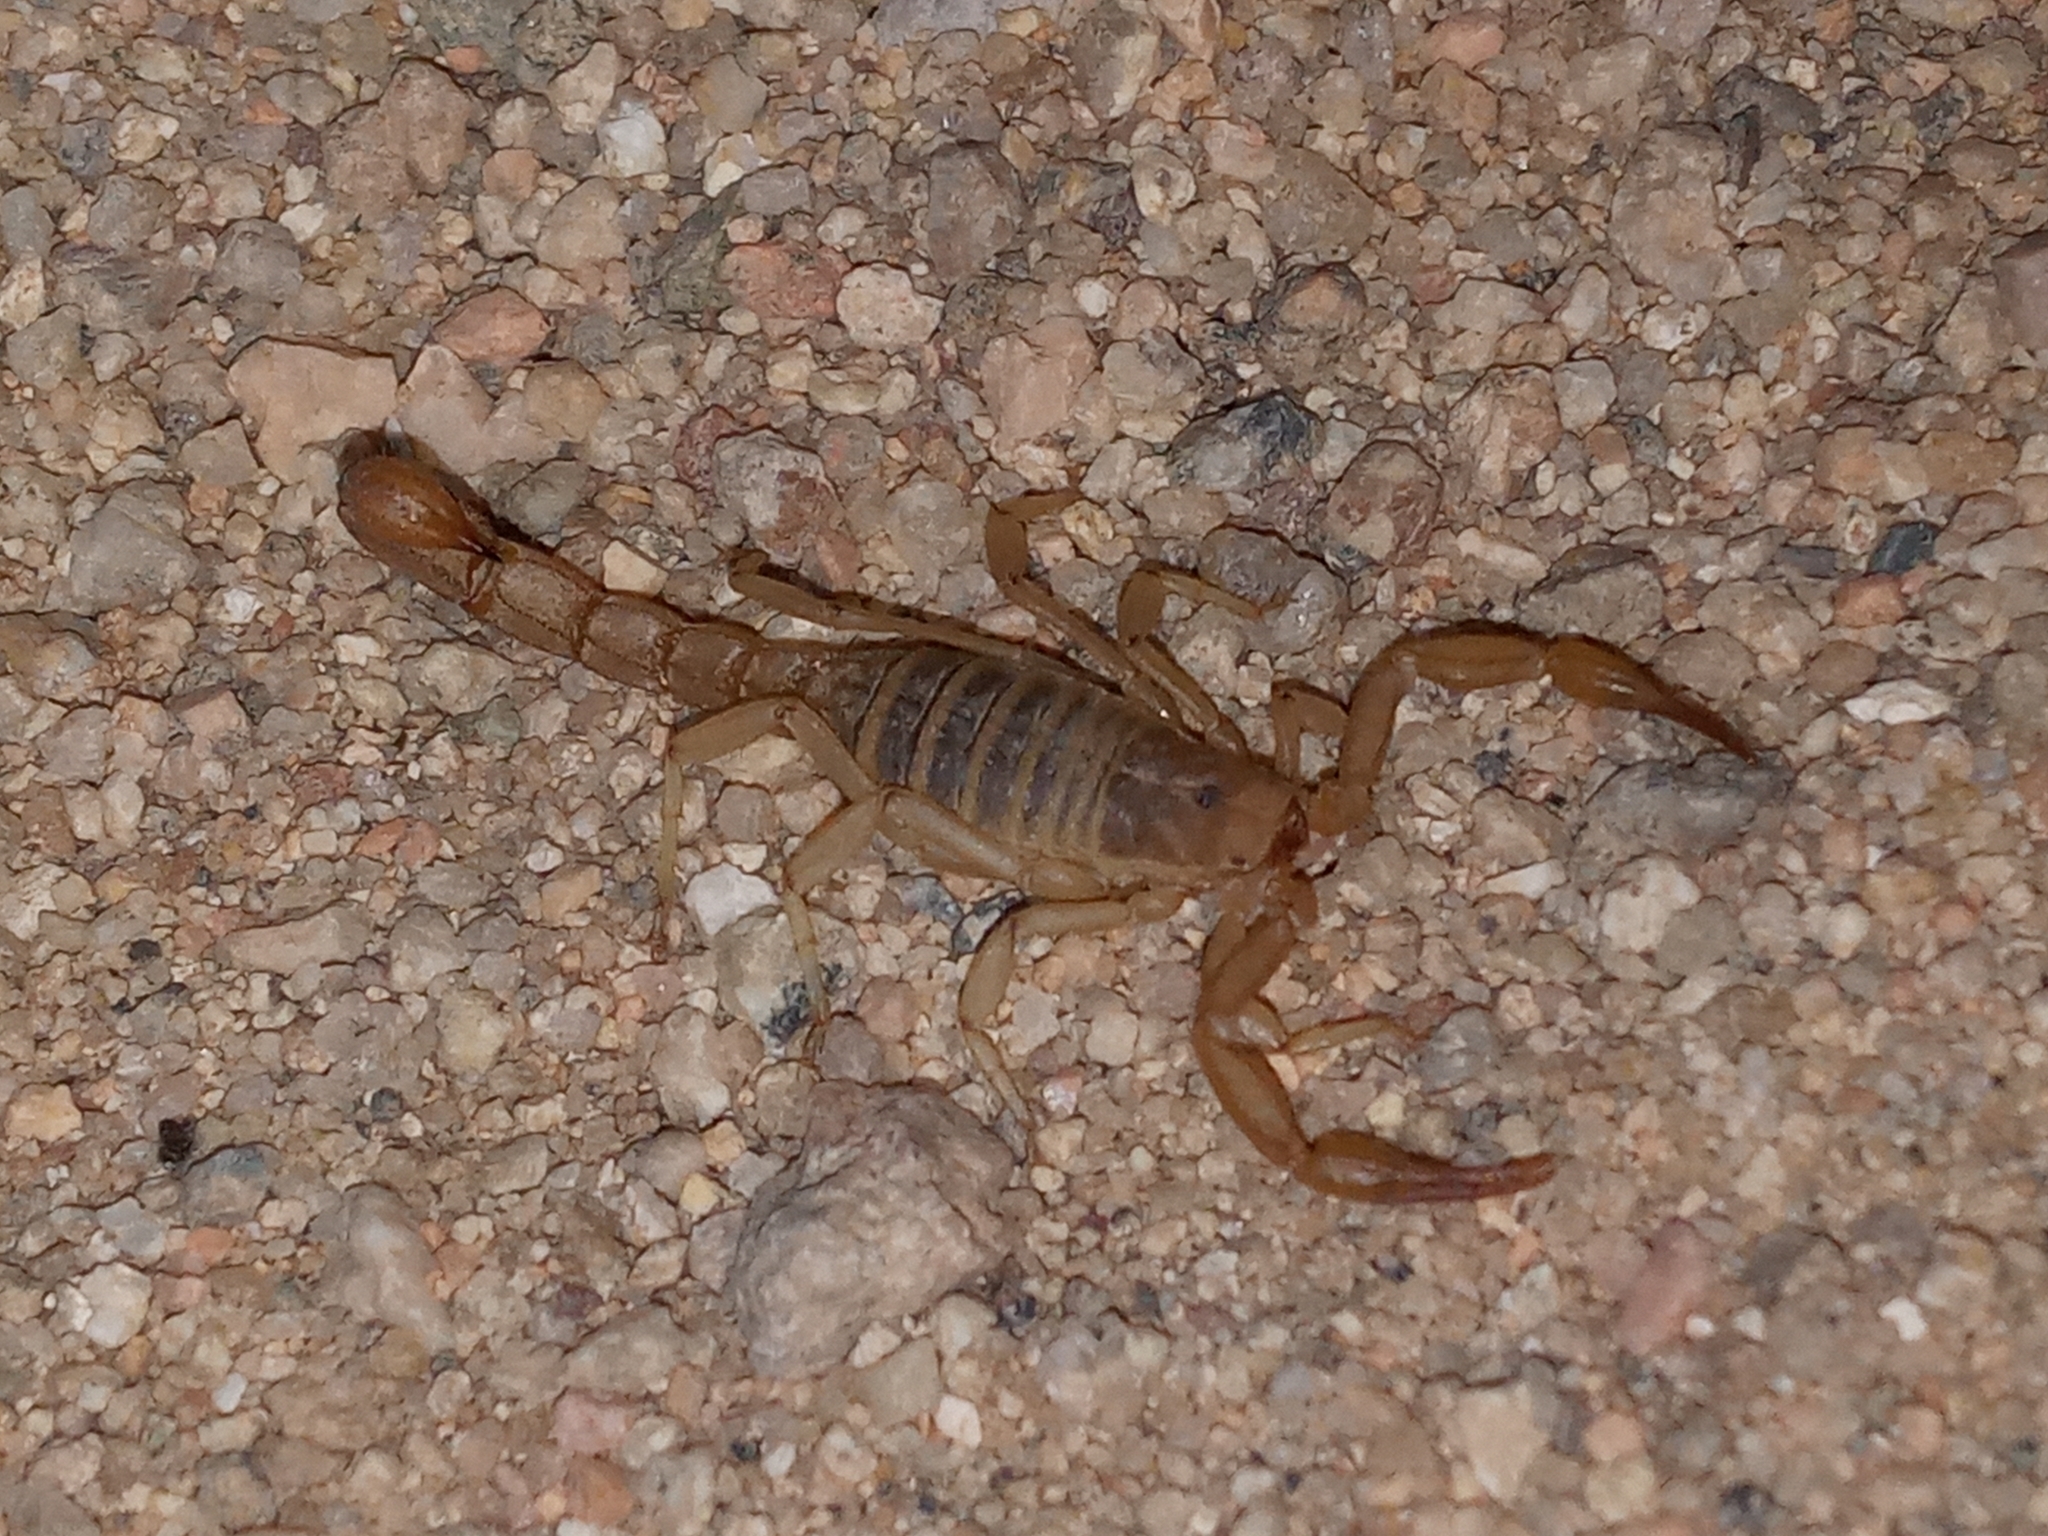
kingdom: Animalia
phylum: Arthropoda
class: Arachnida
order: Scorpiones
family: Vaejovidae
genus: Paravaejovis
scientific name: Paravaejovis confusus
